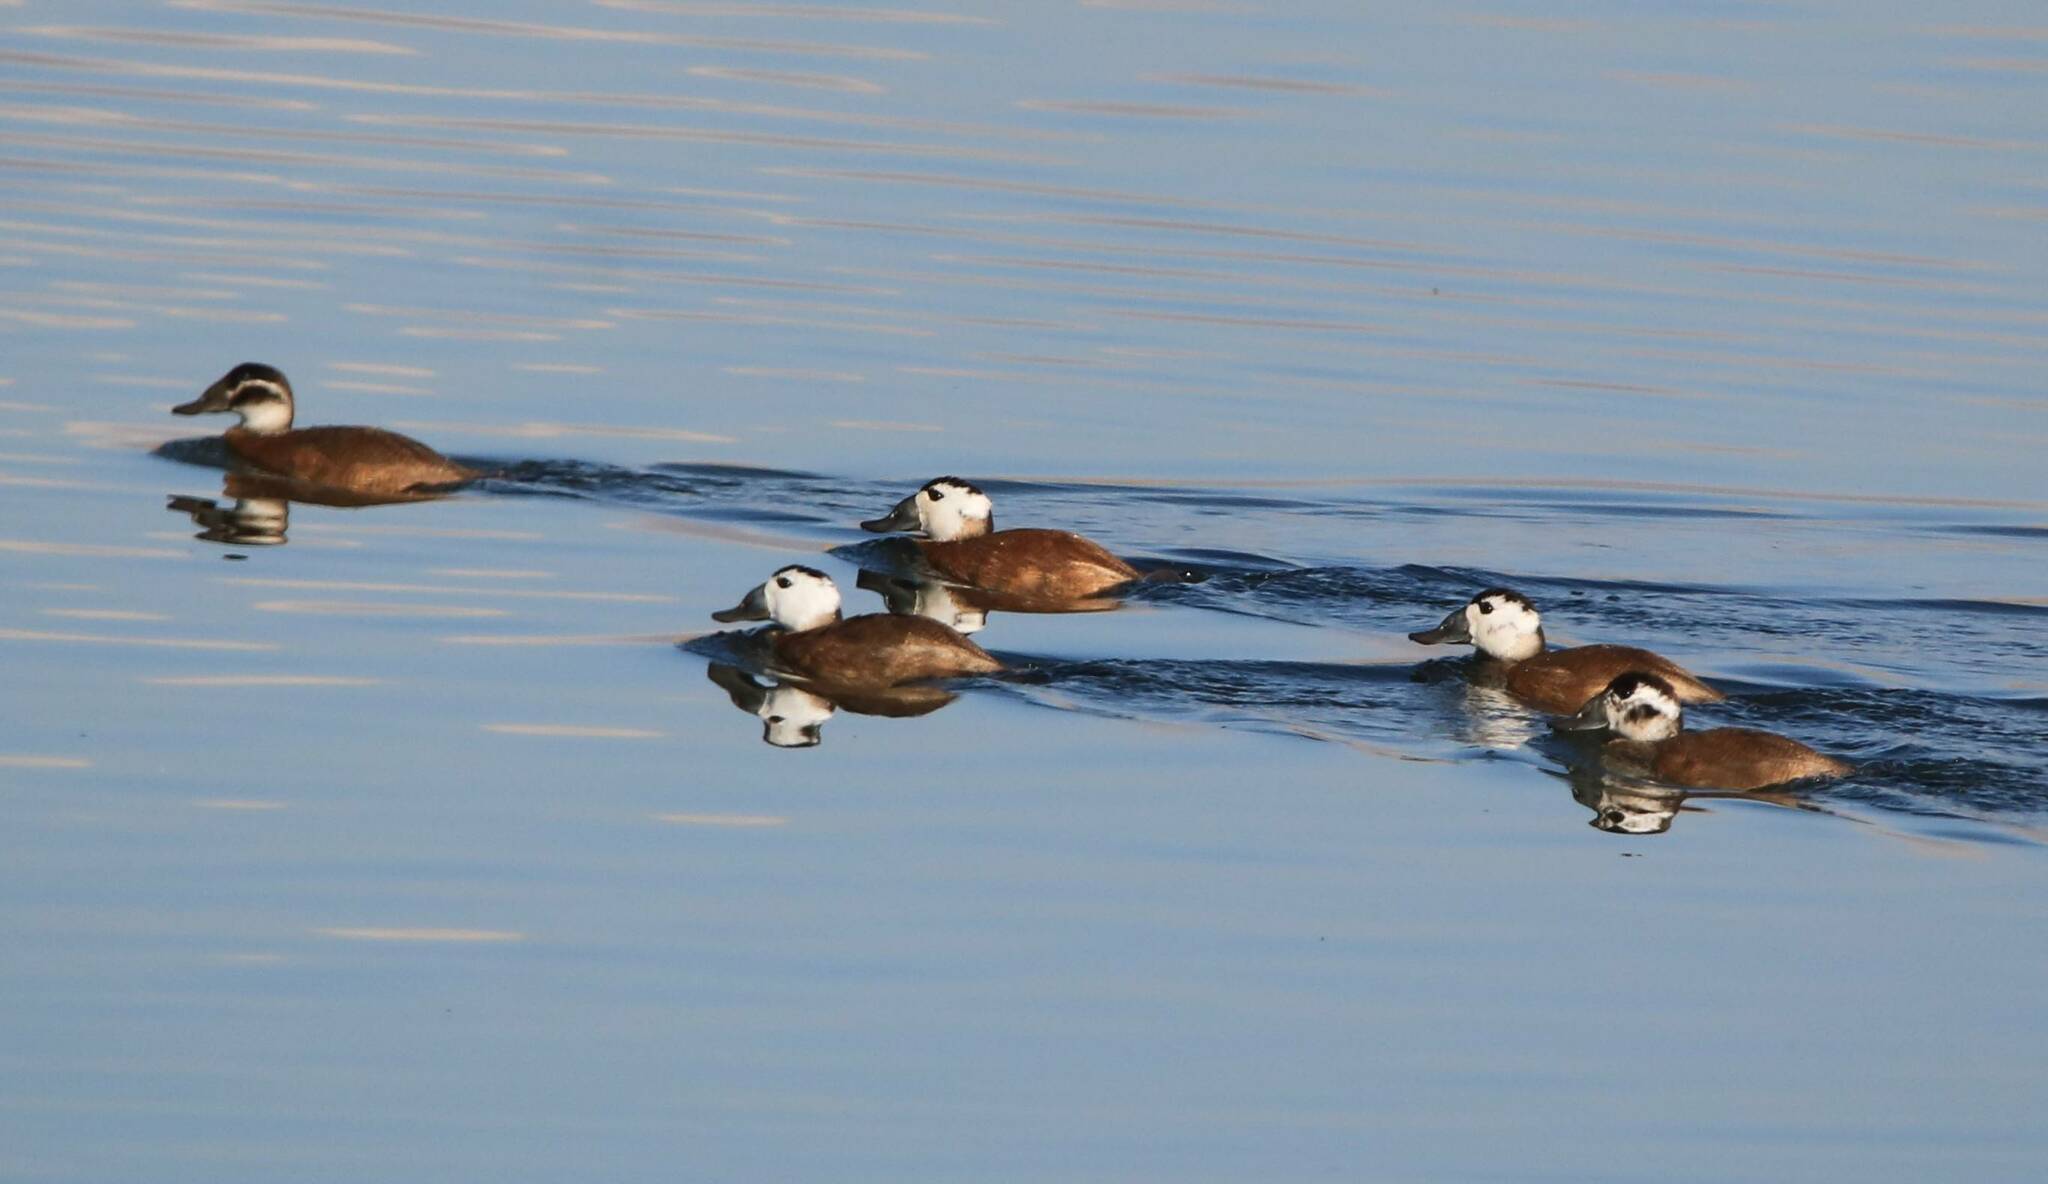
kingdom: Animalia
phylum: Chordata
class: Aves
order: Anseriformes
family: Anatidae
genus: Oxyura
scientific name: Oxyura leucocephala
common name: White-headed duck
